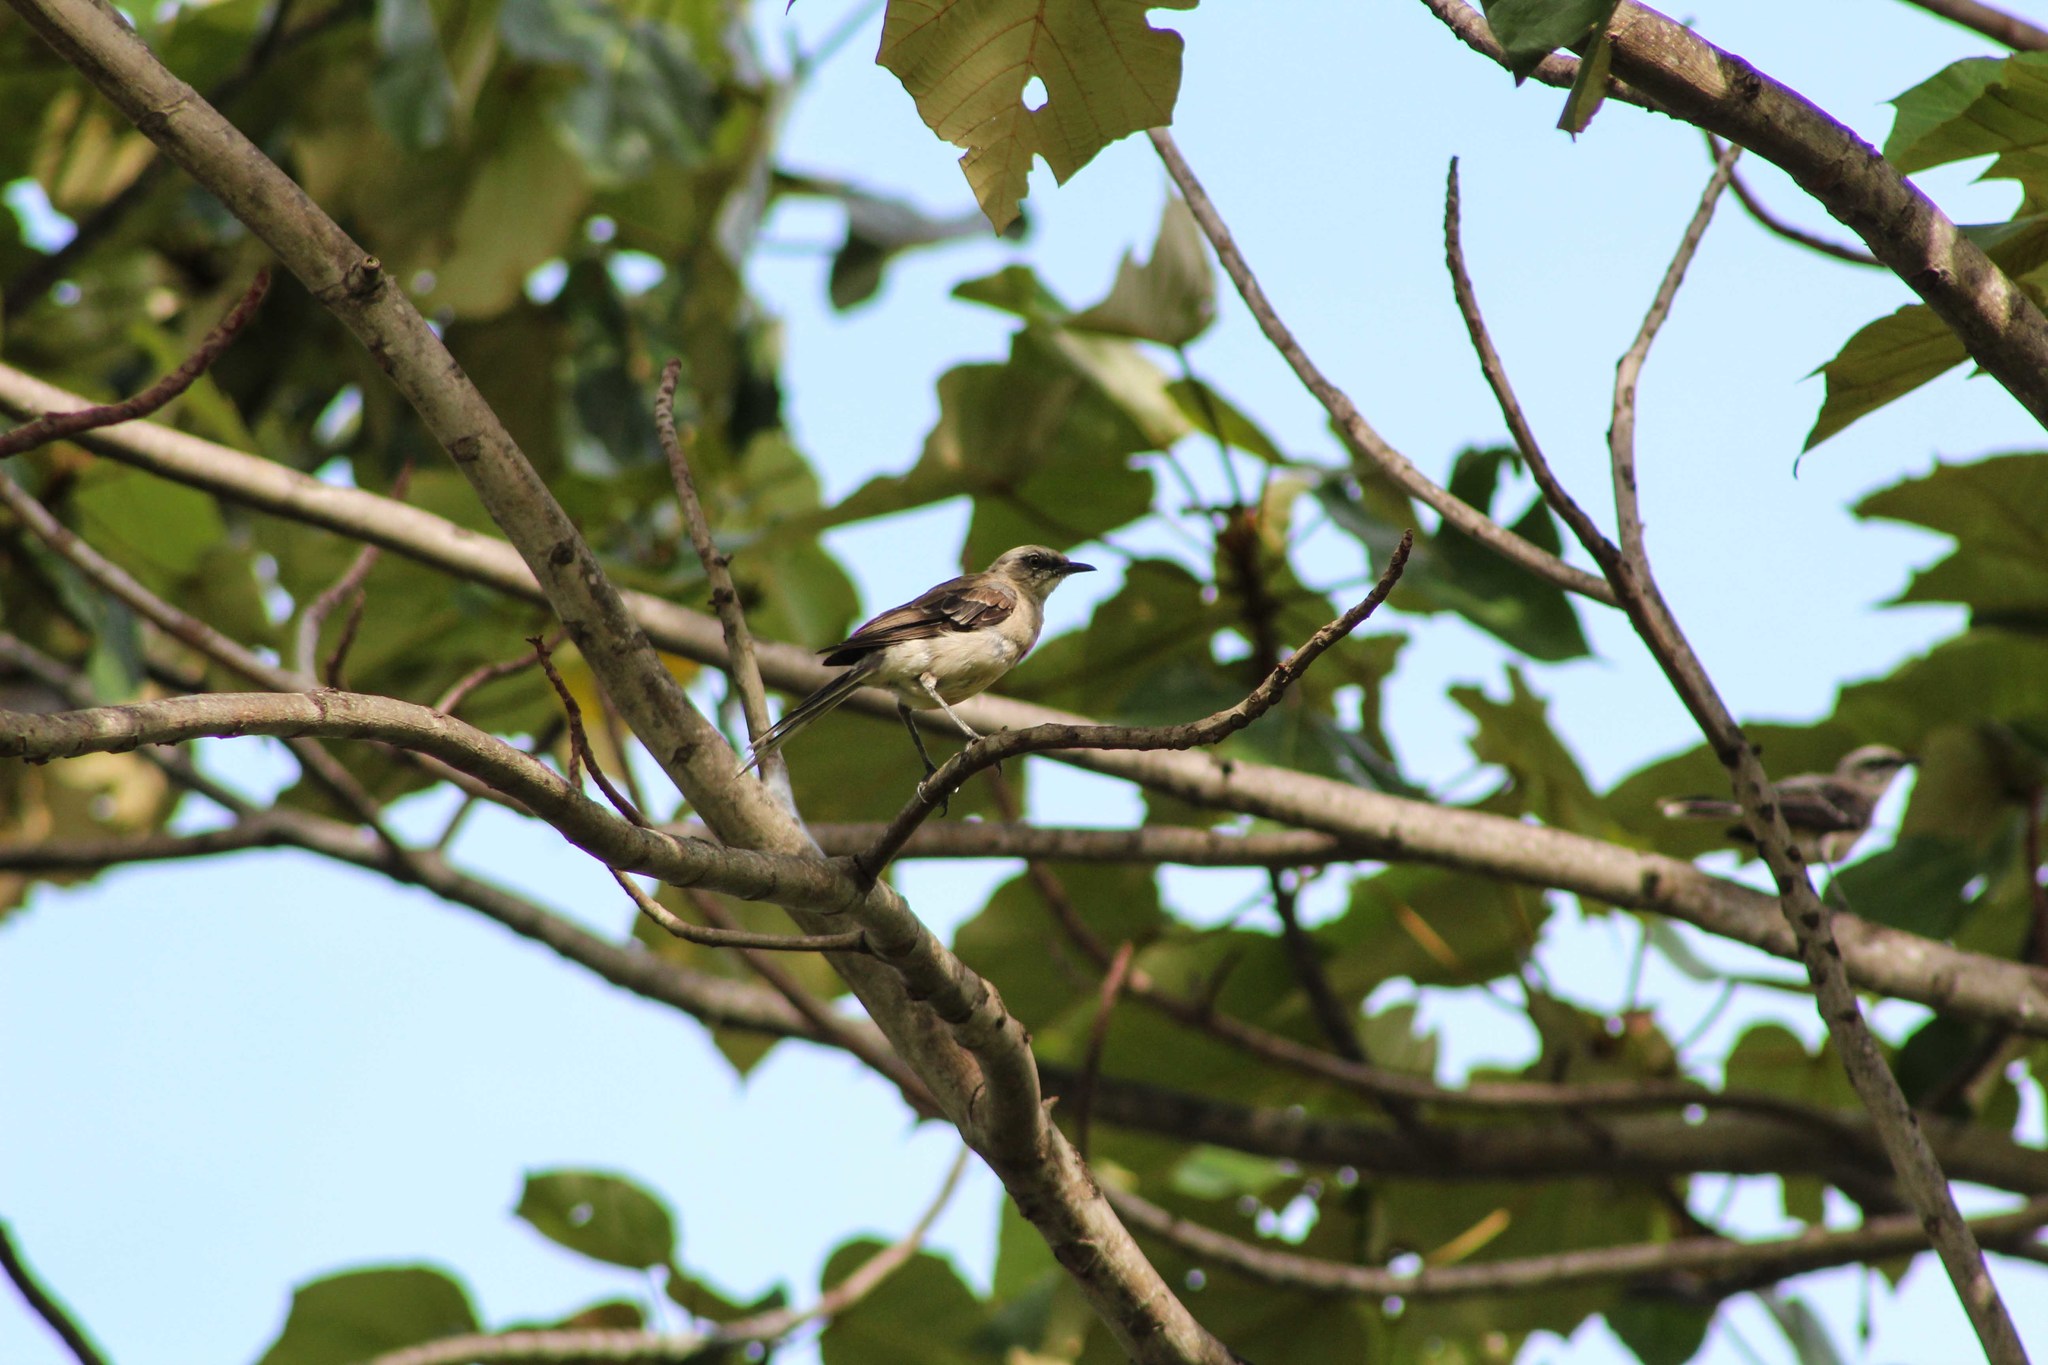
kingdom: Animalia
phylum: Chordata
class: Aves
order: Passeriformes
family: Mimidae
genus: Mimus
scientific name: Mimus gilvus
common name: Tropical mockingbird
